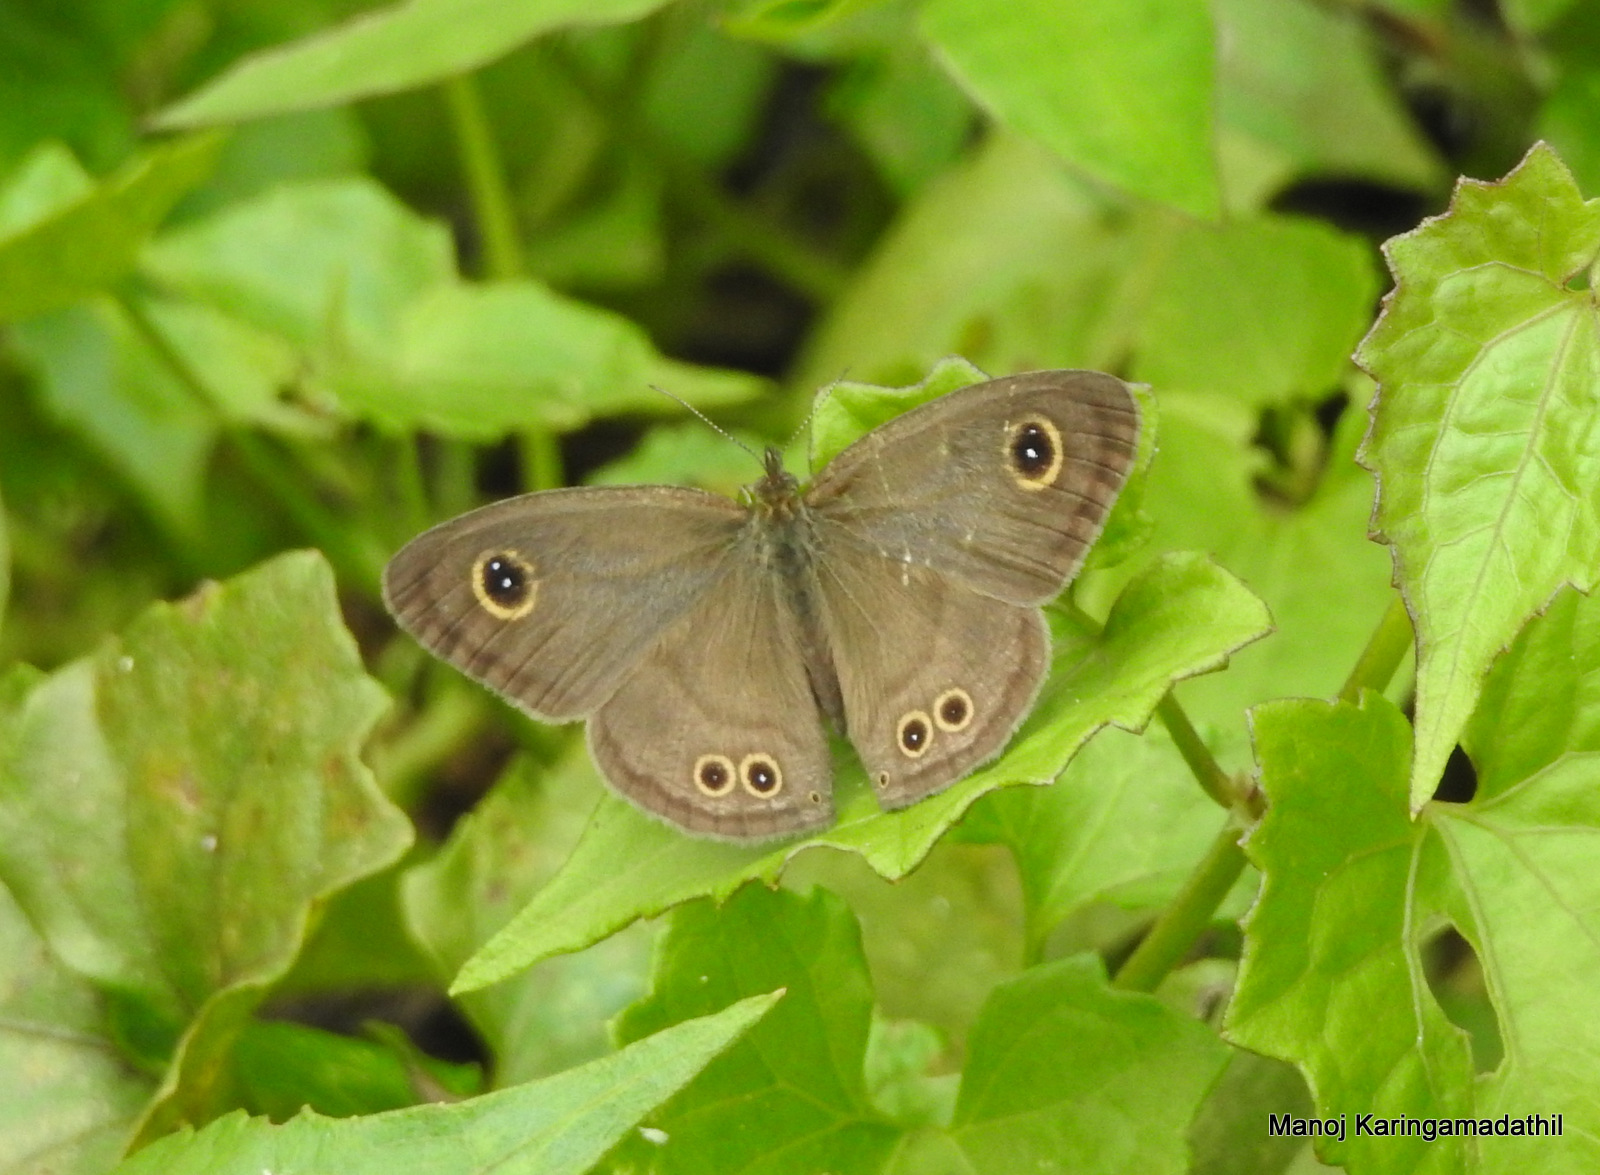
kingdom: Animalia
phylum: Arthropoda
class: Insecta
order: Lepidoptera
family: Nymphalidae
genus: Ypthima
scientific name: Ypthima baldus
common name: Common five-ring
